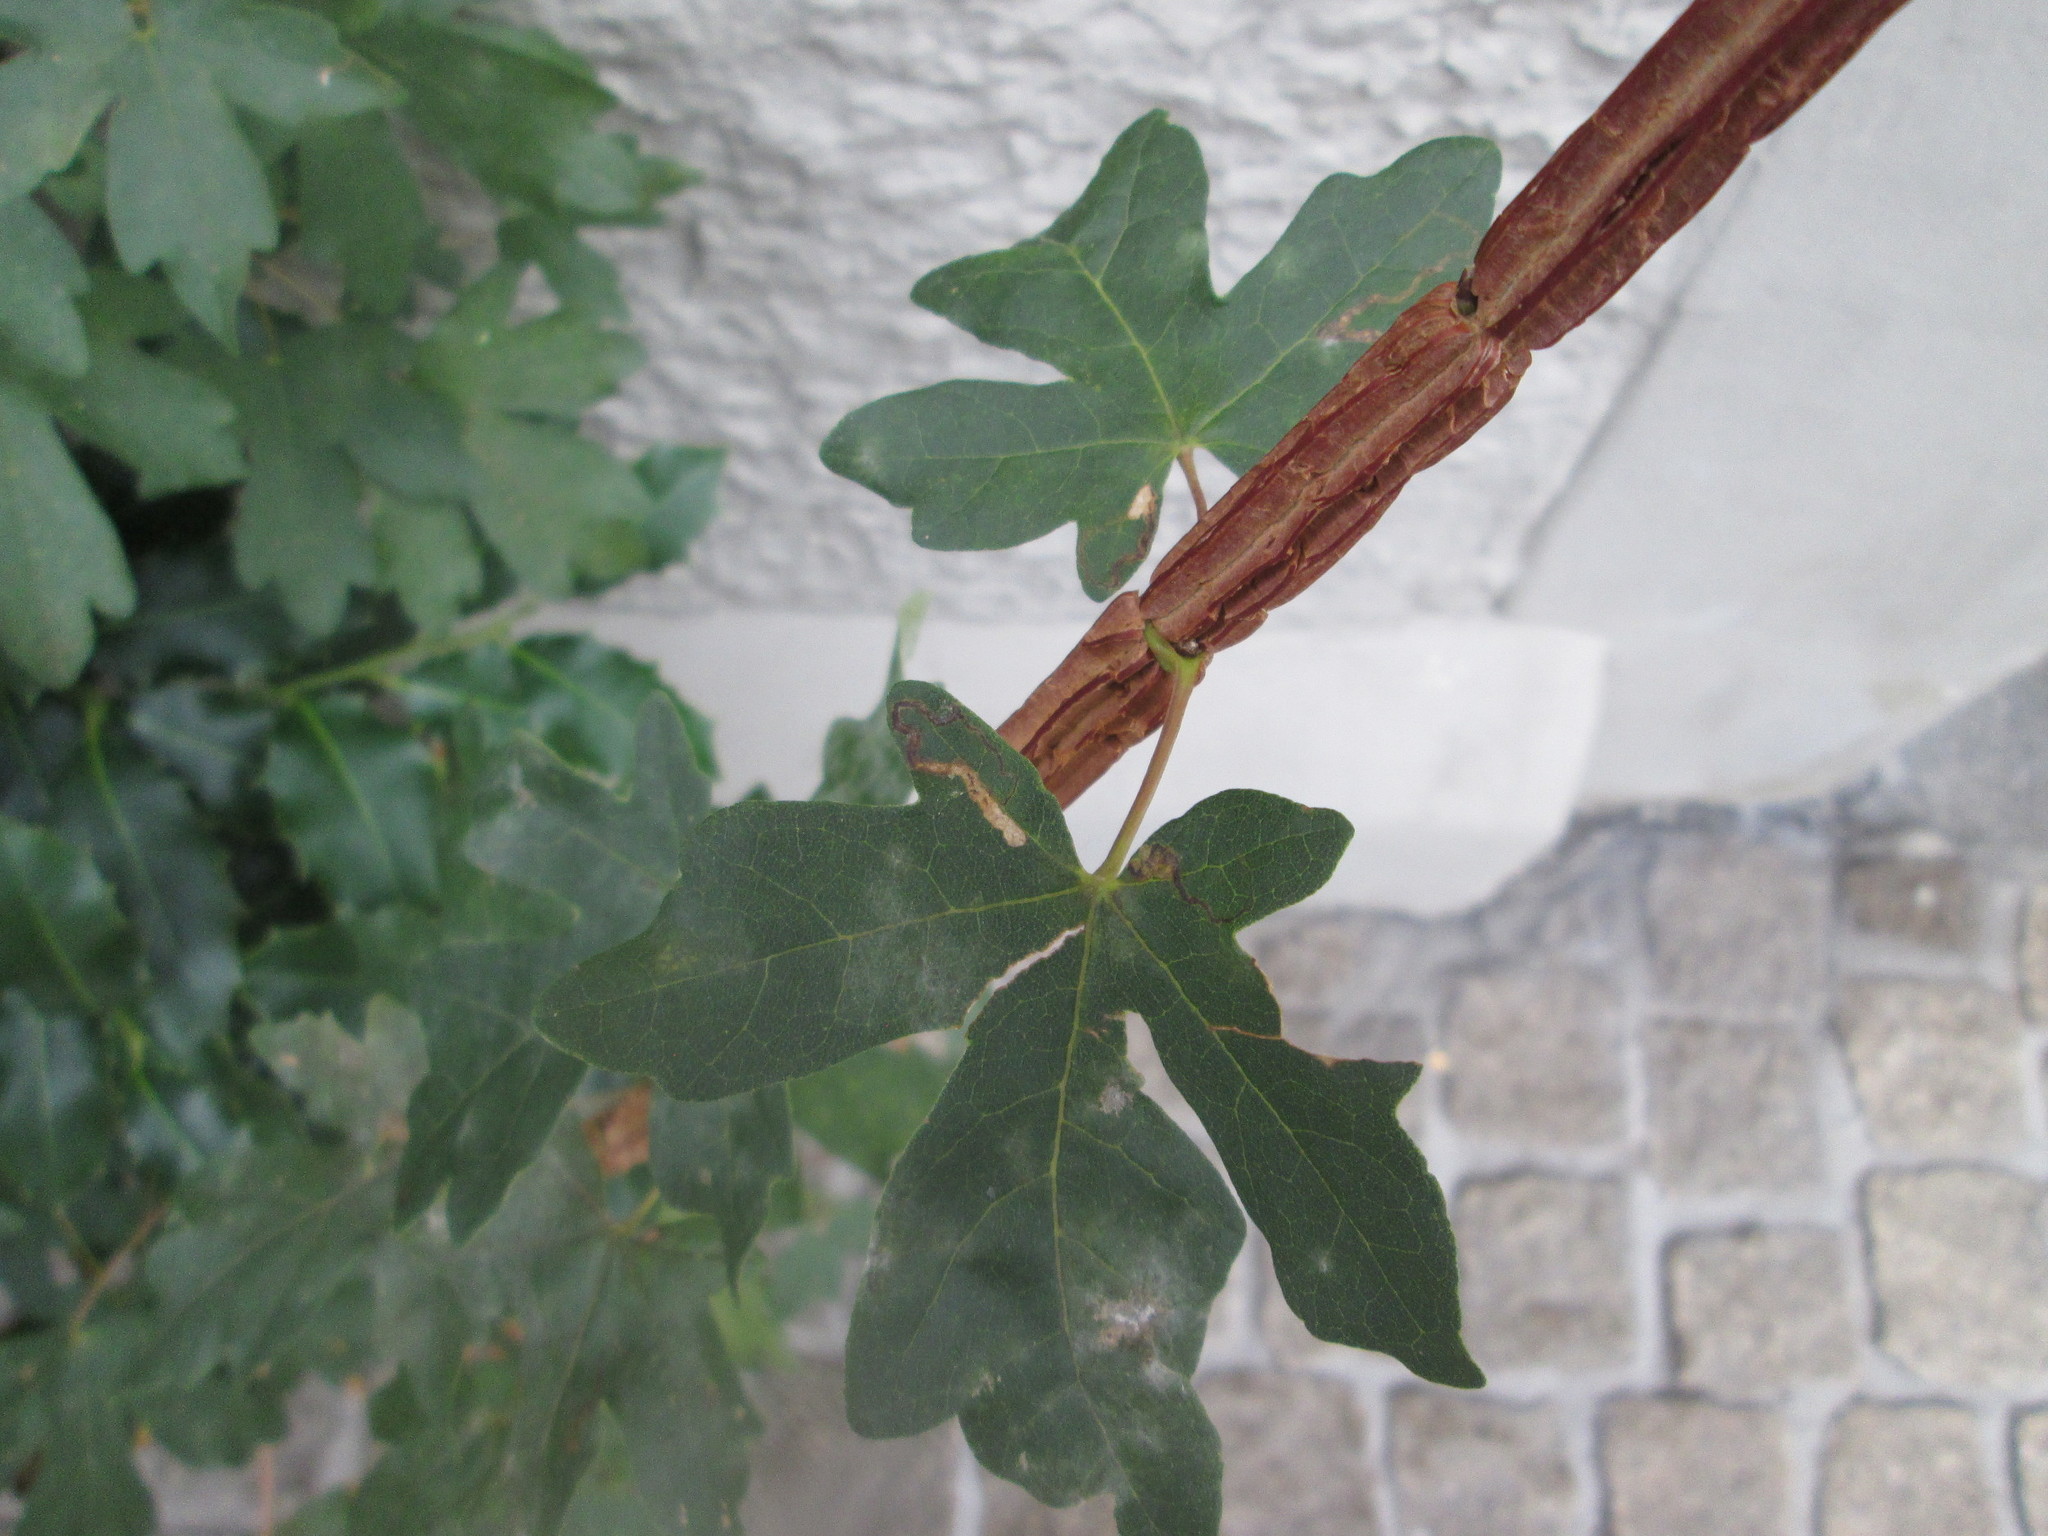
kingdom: Plantae
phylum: Tracheophyta
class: Magnoliopsida
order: Sapindales
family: Sapindaceae
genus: Acer
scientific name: Acer campestre
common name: Field maple
